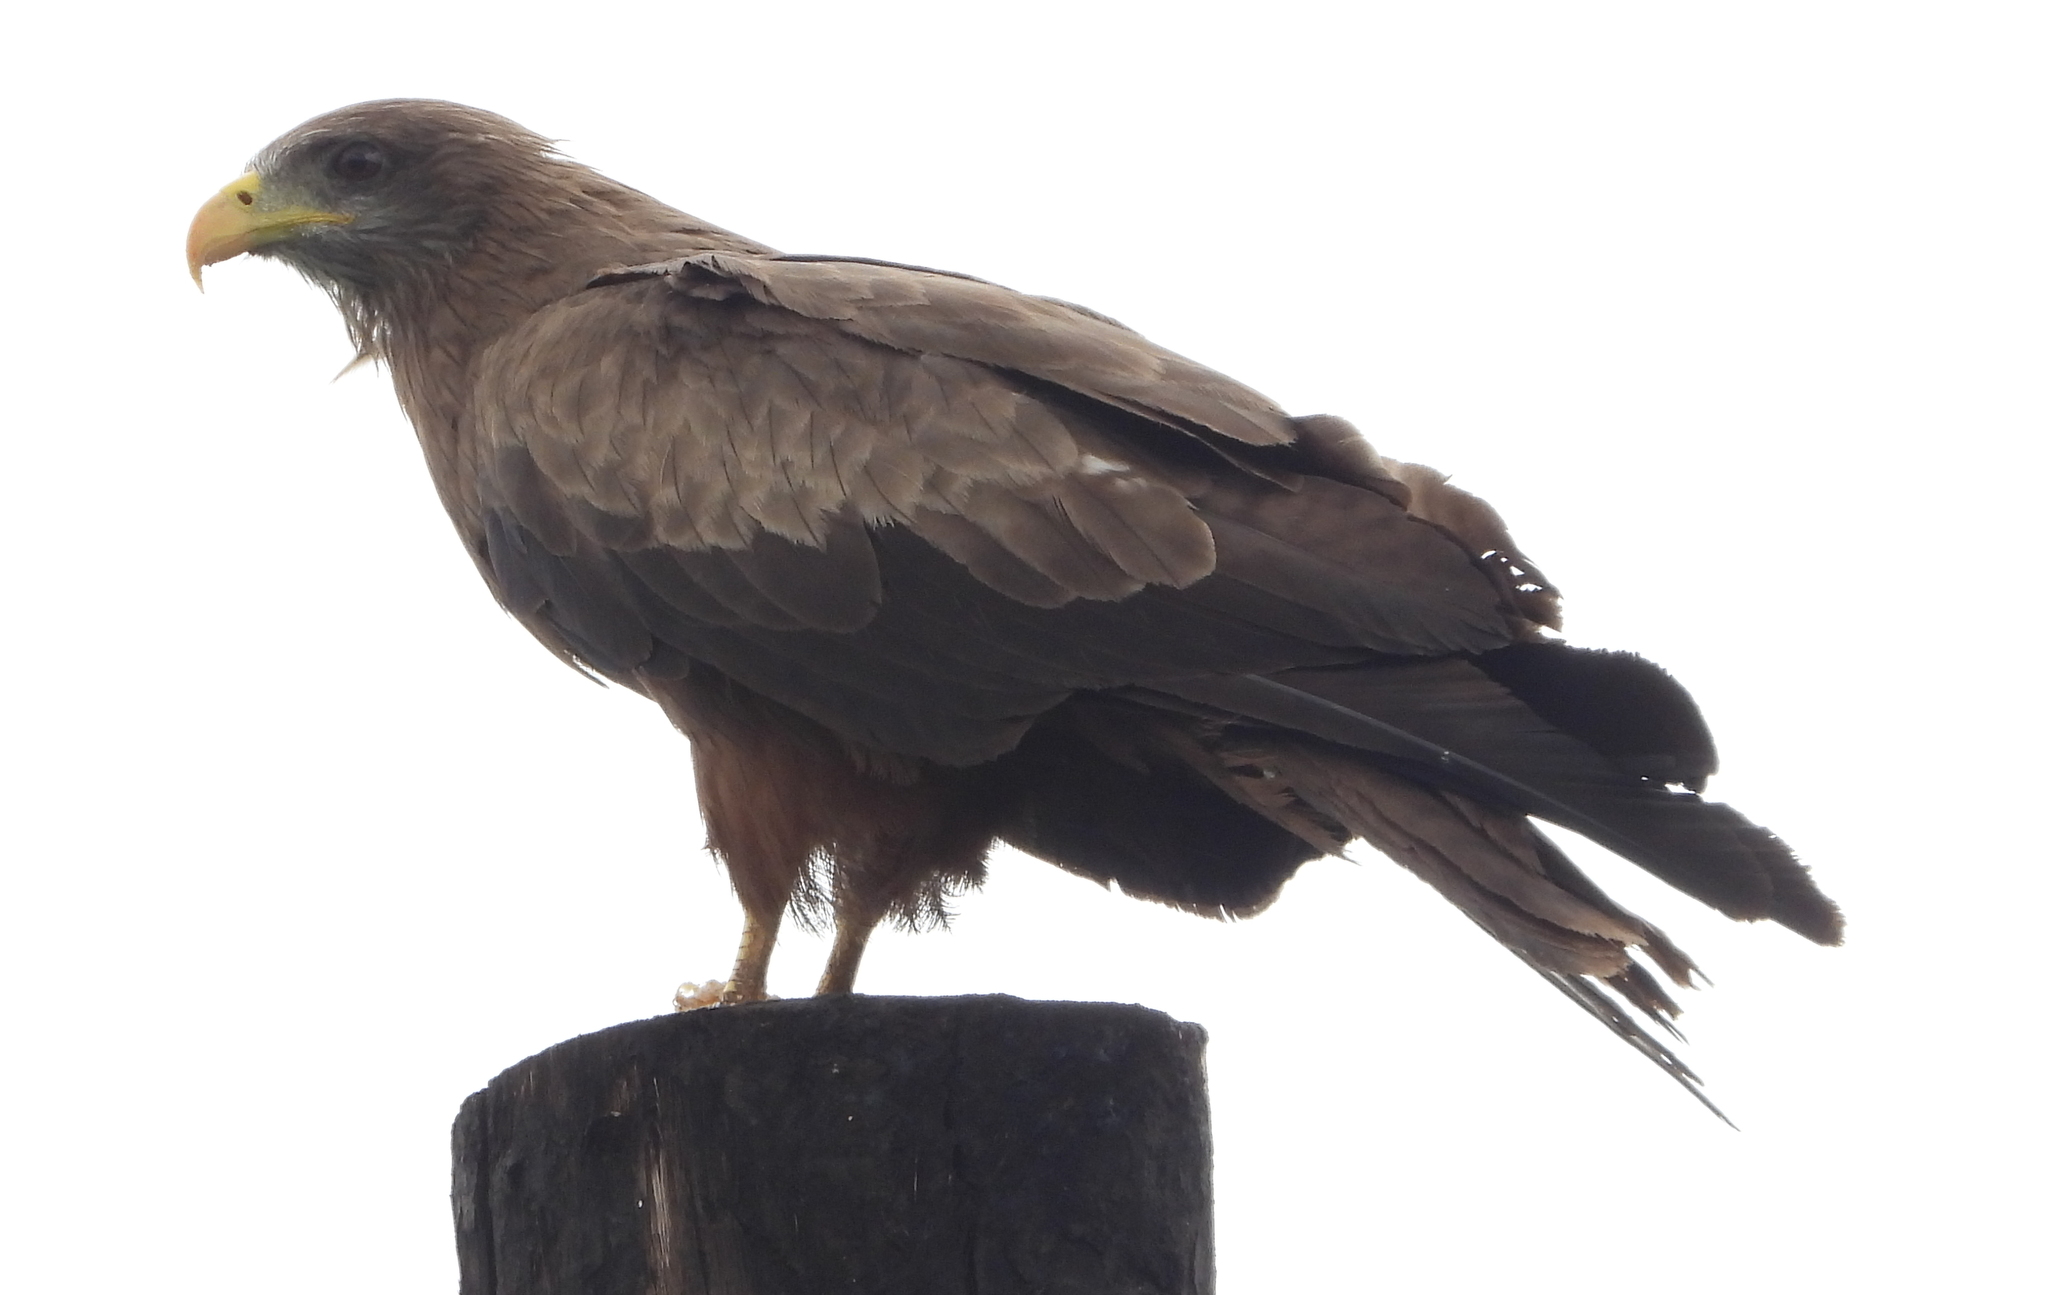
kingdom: Animalia
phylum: Chordata
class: Aves
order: Accipitriformes
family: Accipitridae
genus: Milvus
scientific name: Milvus migrans
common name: Black kite
